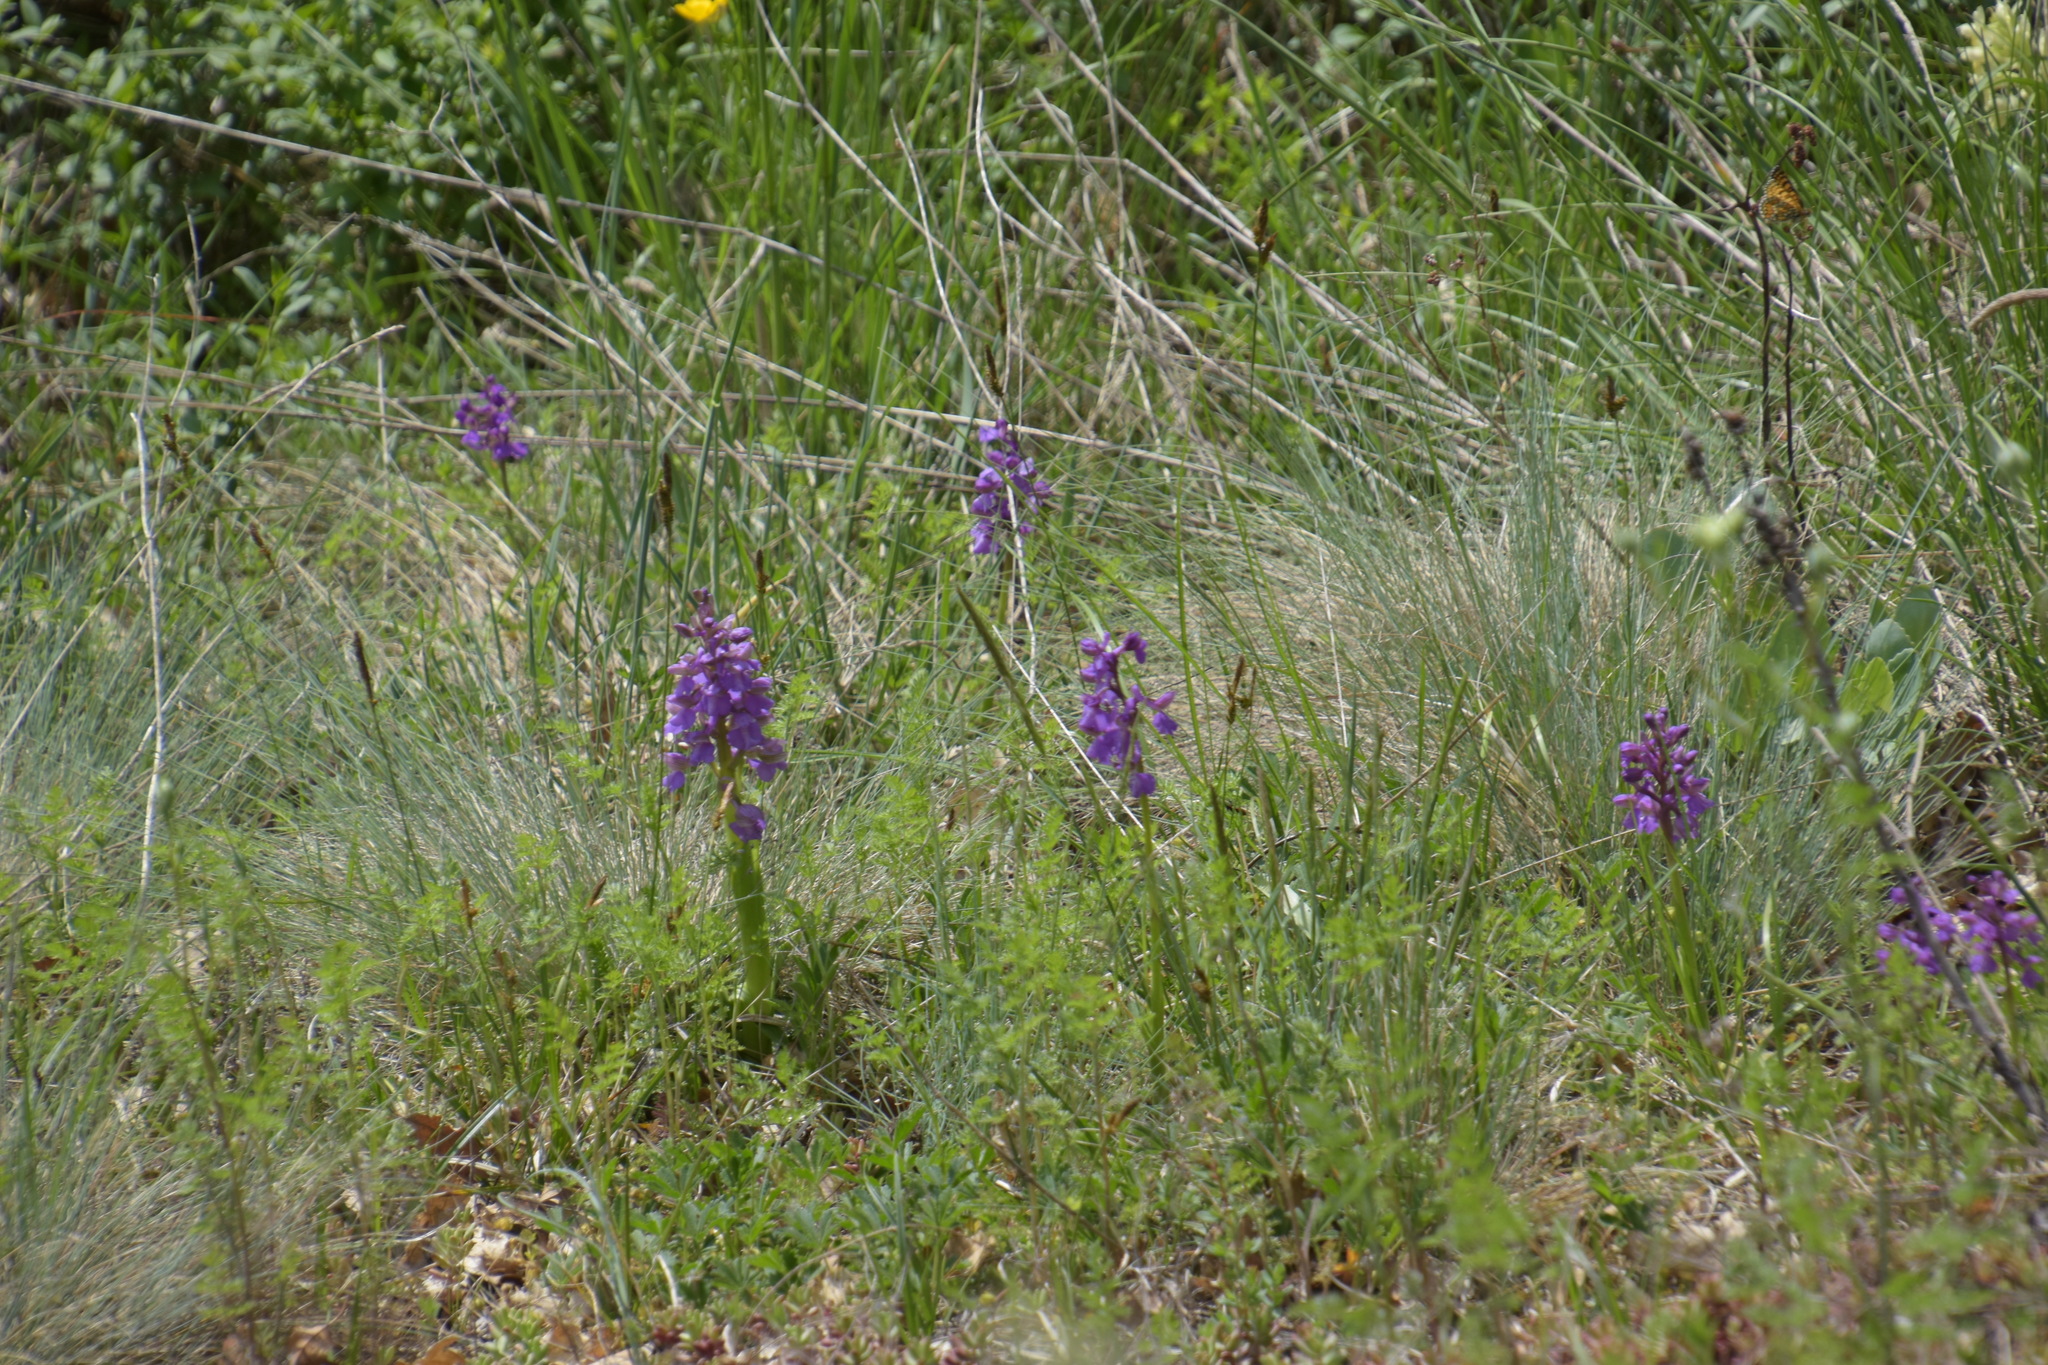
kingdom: Plantae
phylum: Tracheophyta
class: Liliopsida
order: Asparagales
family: Orchidaceae
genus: Anacamptis
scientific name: Anacamptis morio
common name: Green-winged orchid
